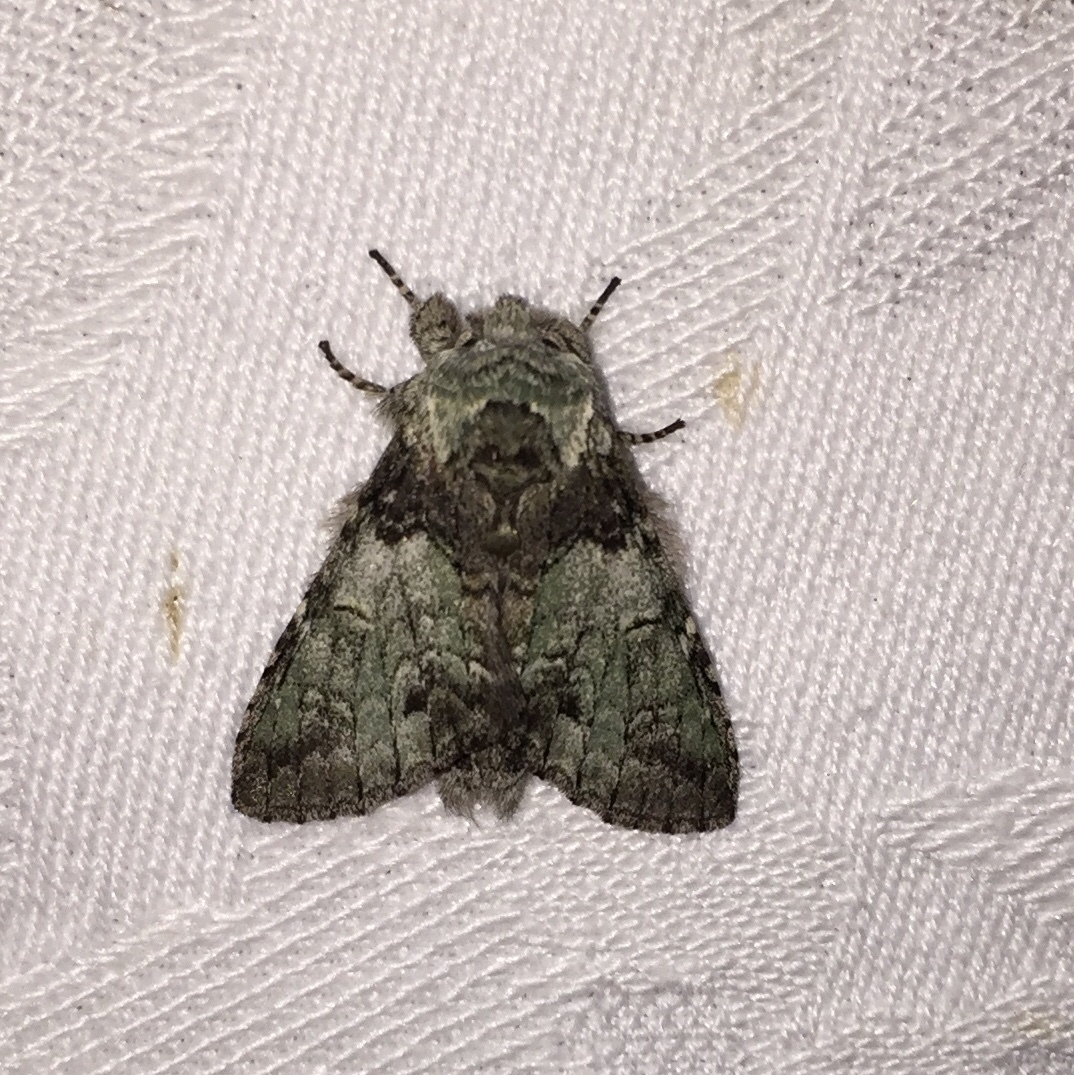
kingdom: Animalia
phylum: Arthropoda
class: Insecta
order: Lepidoptera
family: Notodontidae
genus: Macrurocampa
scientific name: Macrurocampa marthesia
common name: Mottled prominent
